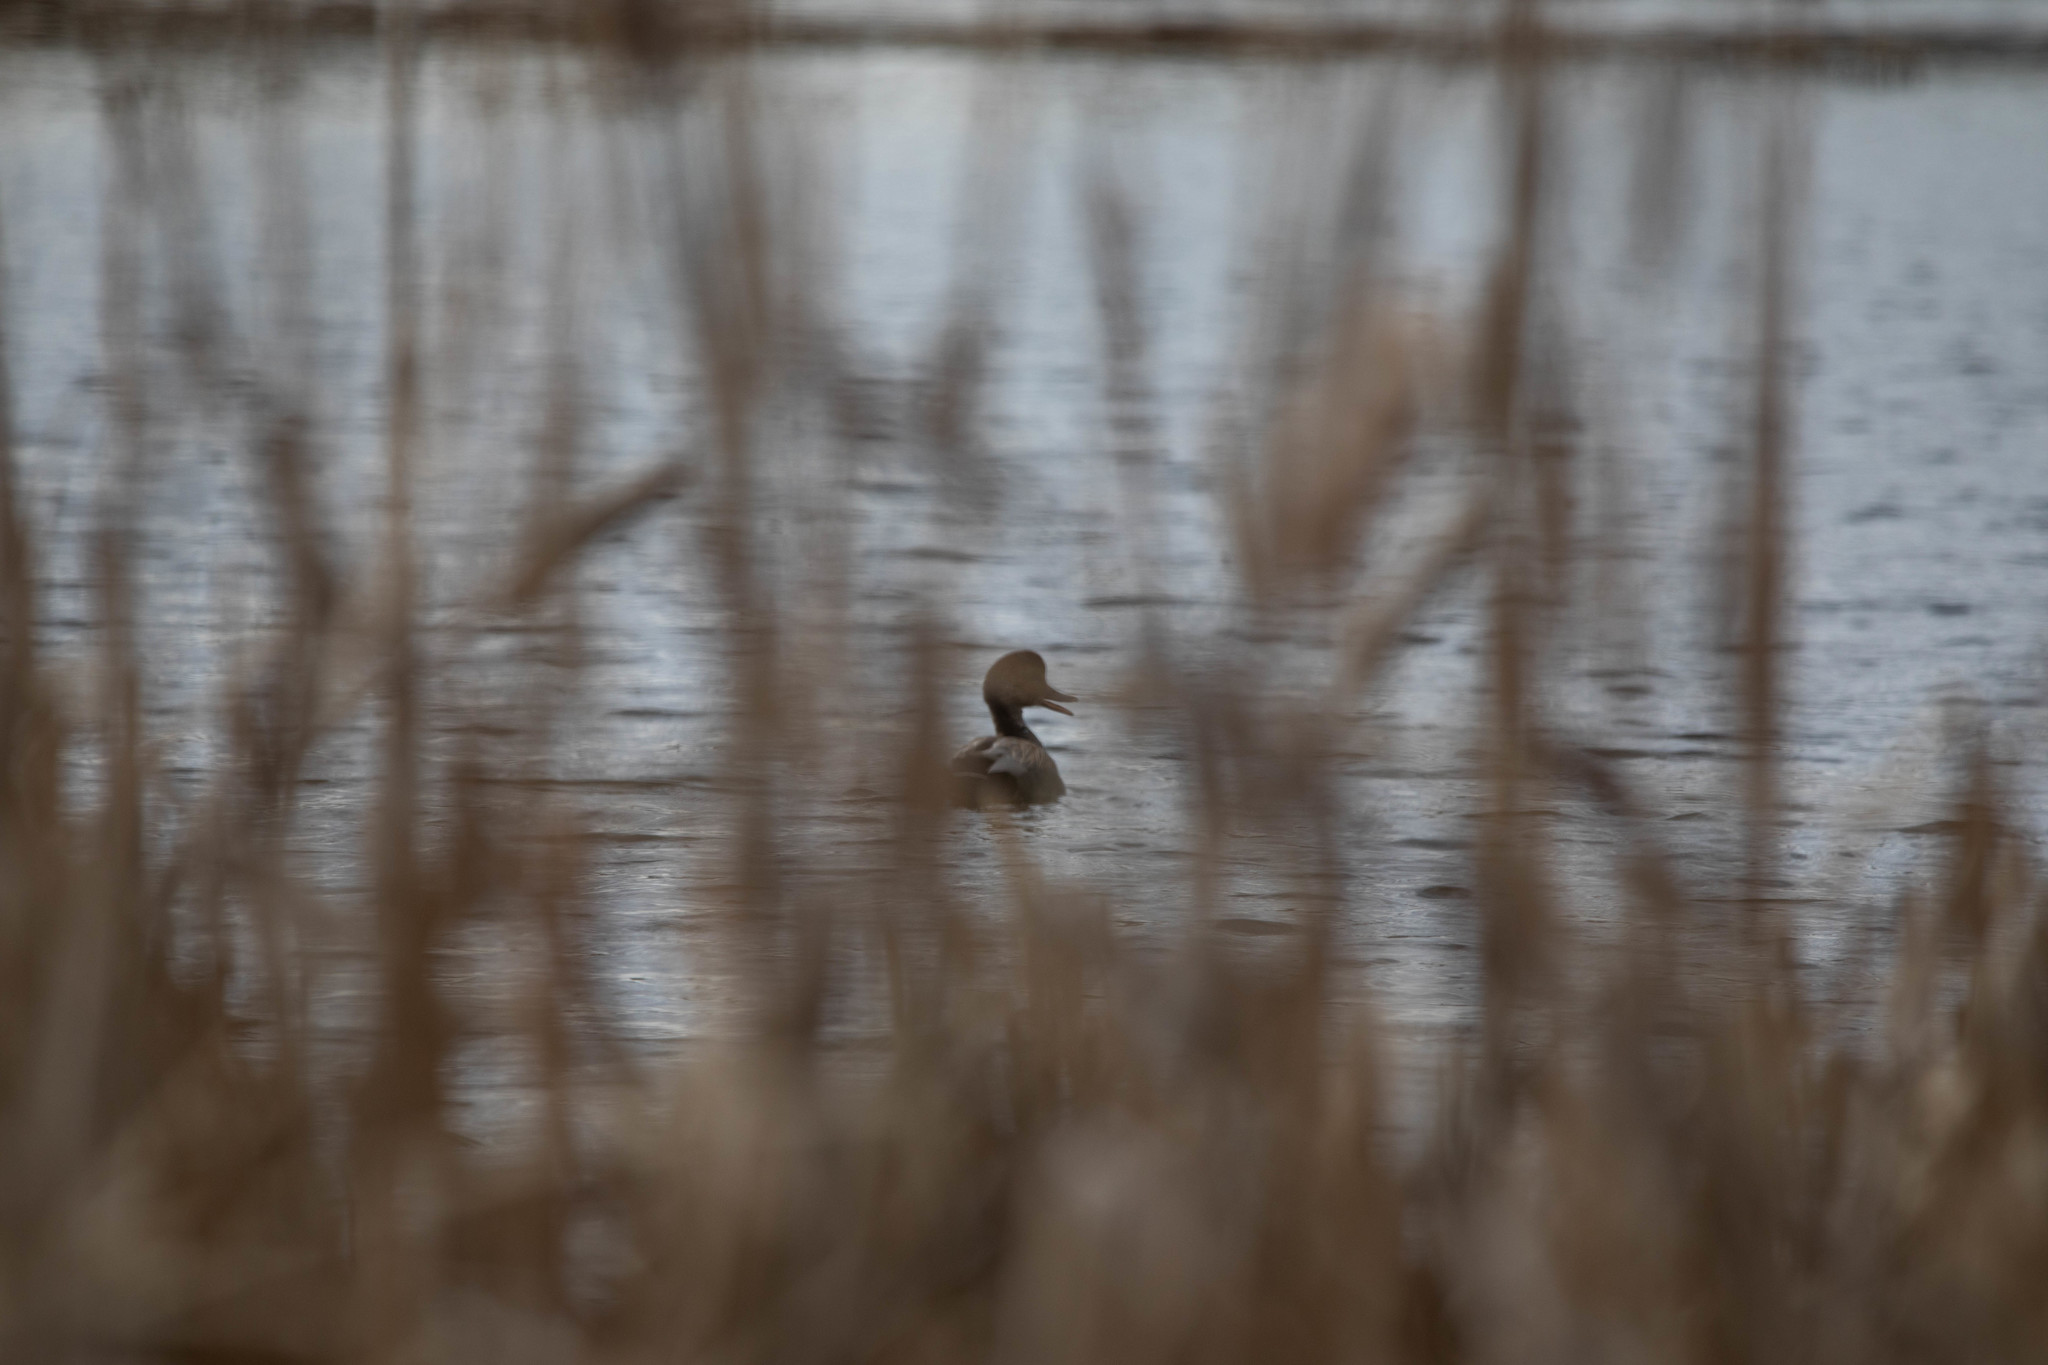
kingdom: Animalia
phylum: Chordata
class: Aves
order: Anseriformes
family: Anatidae
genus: Mareca
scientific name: Mareca strepera
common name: Gadwall
